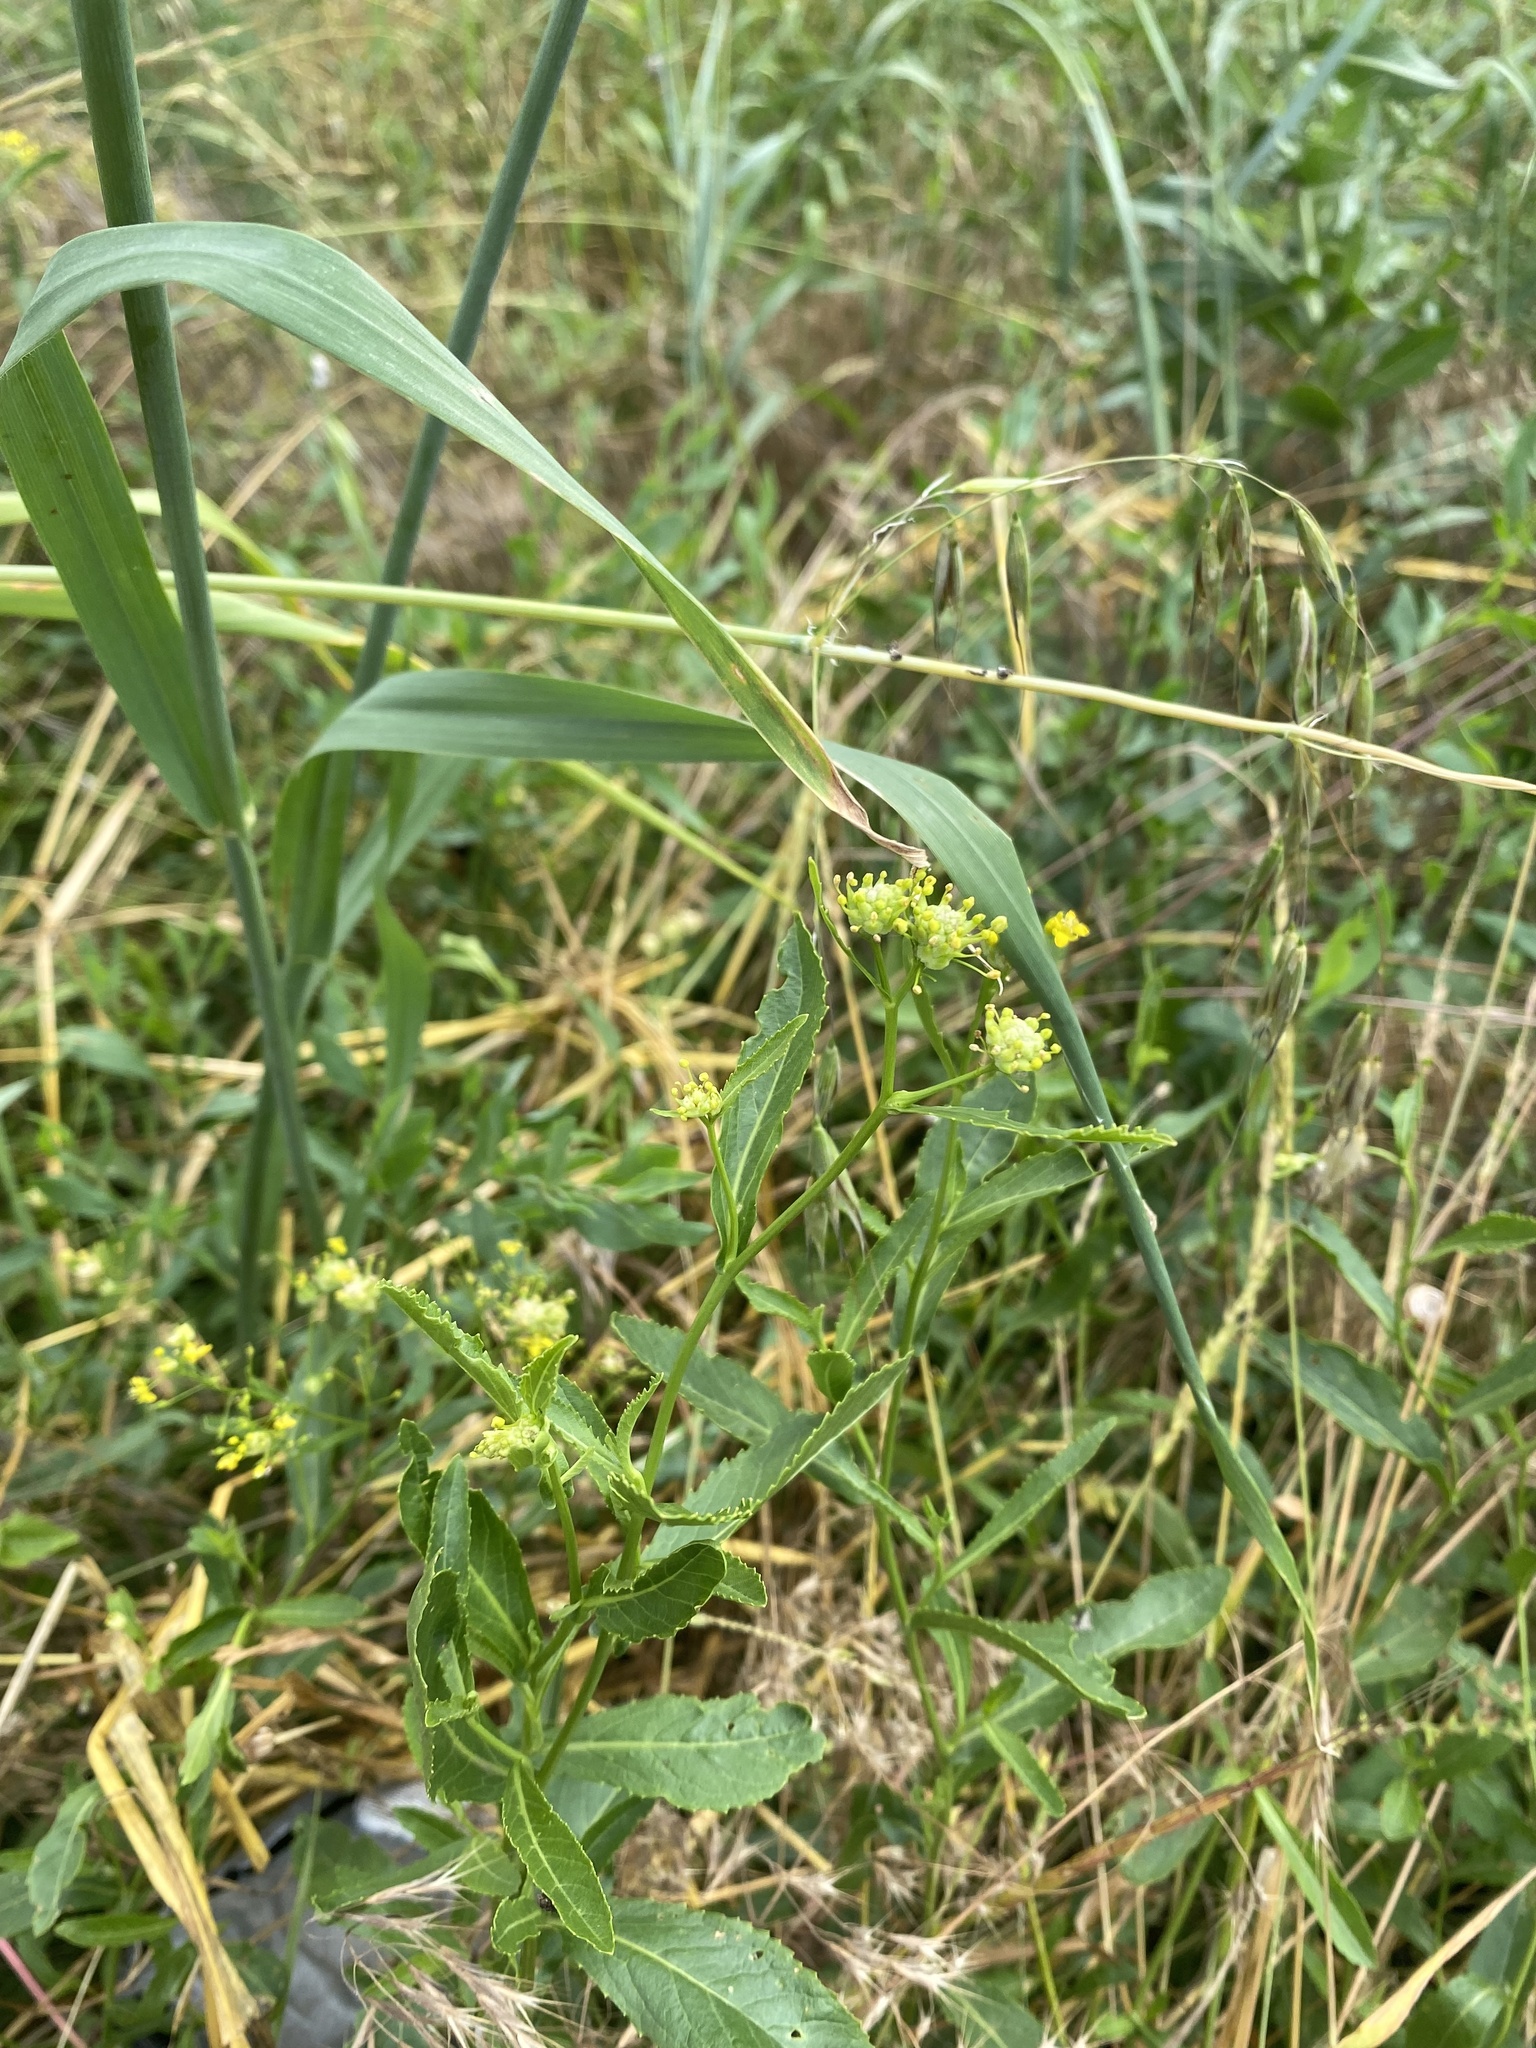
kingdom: Plantae
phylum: Tracheophyta
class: Magnoliopsida
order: Brassicales
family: Brassicaceae
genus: Rorippa
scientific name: Rorippa austriaca
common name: Austrian yellow-cress
